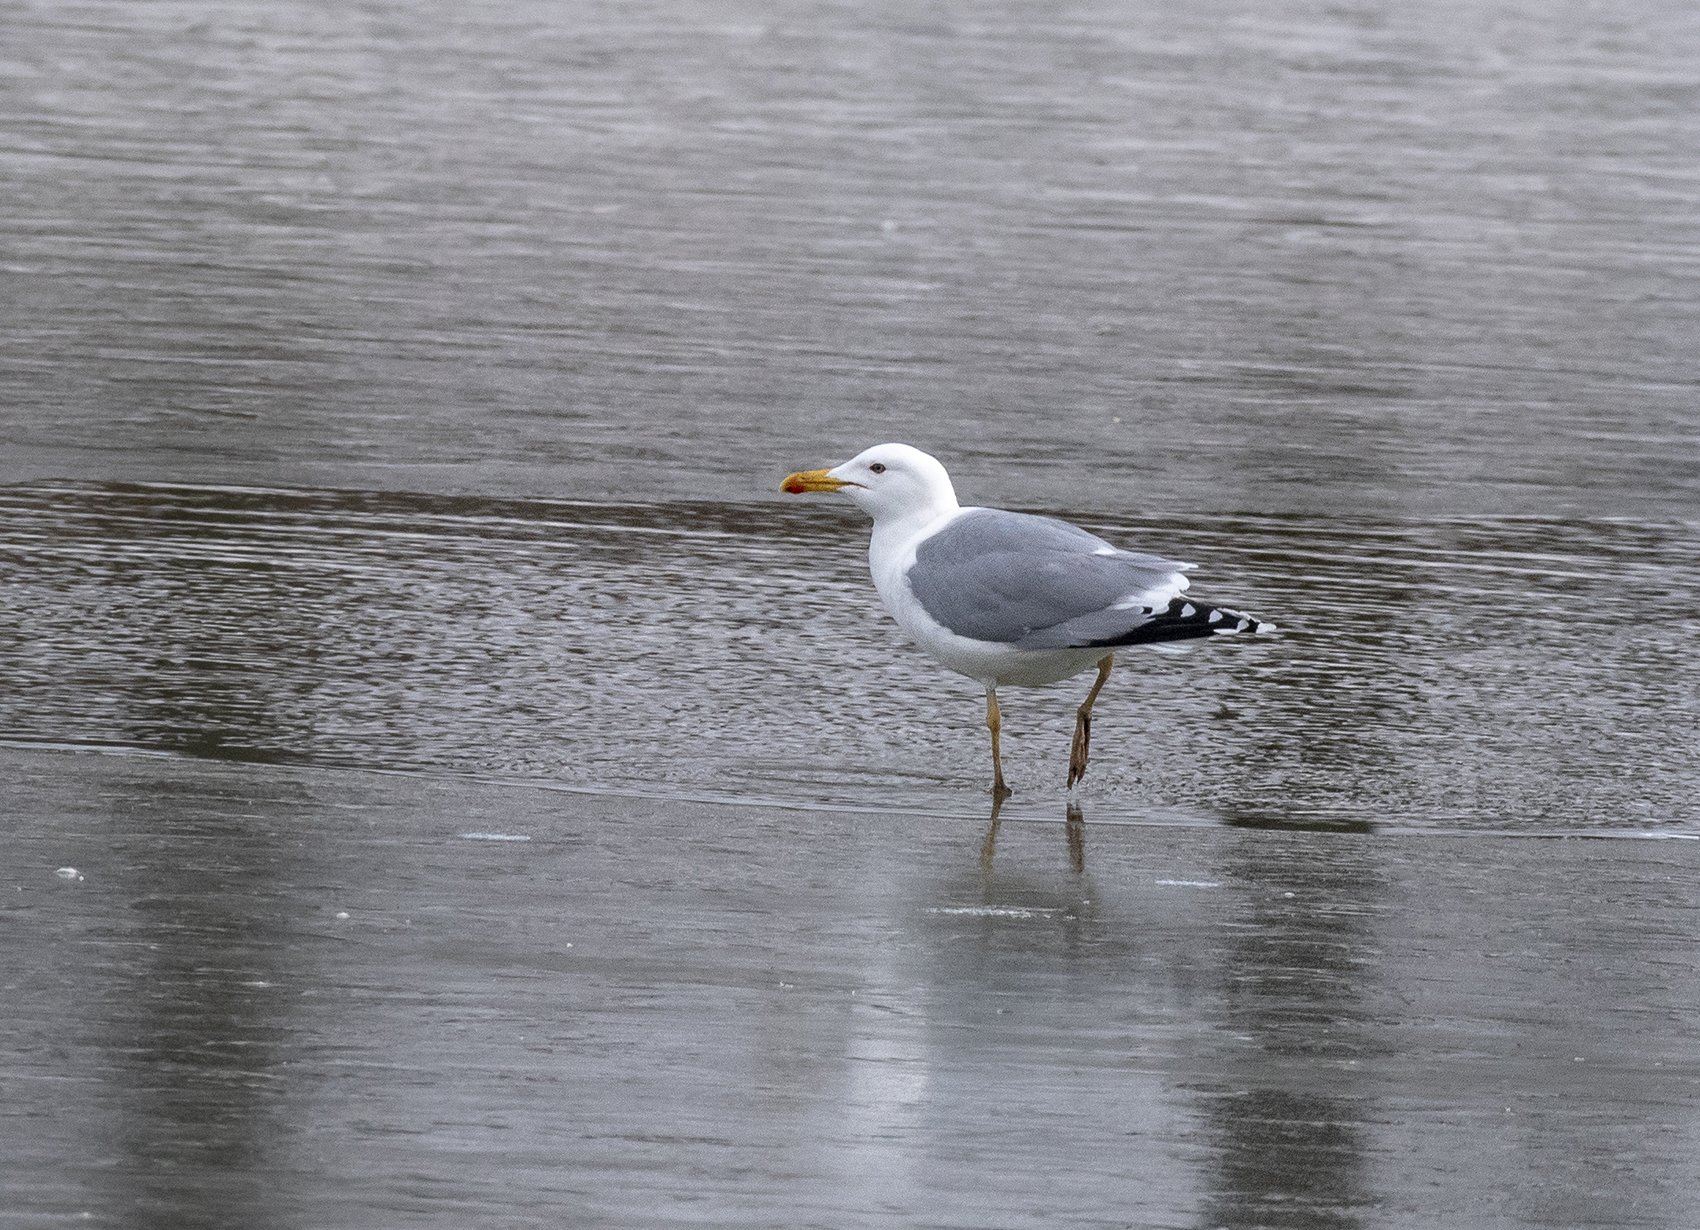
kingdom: Animalia
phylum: Chordata
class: Aves
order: Charadriiformes
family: Laridae
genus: Larus
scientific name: Larus cachinnans
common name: Caspian gull
